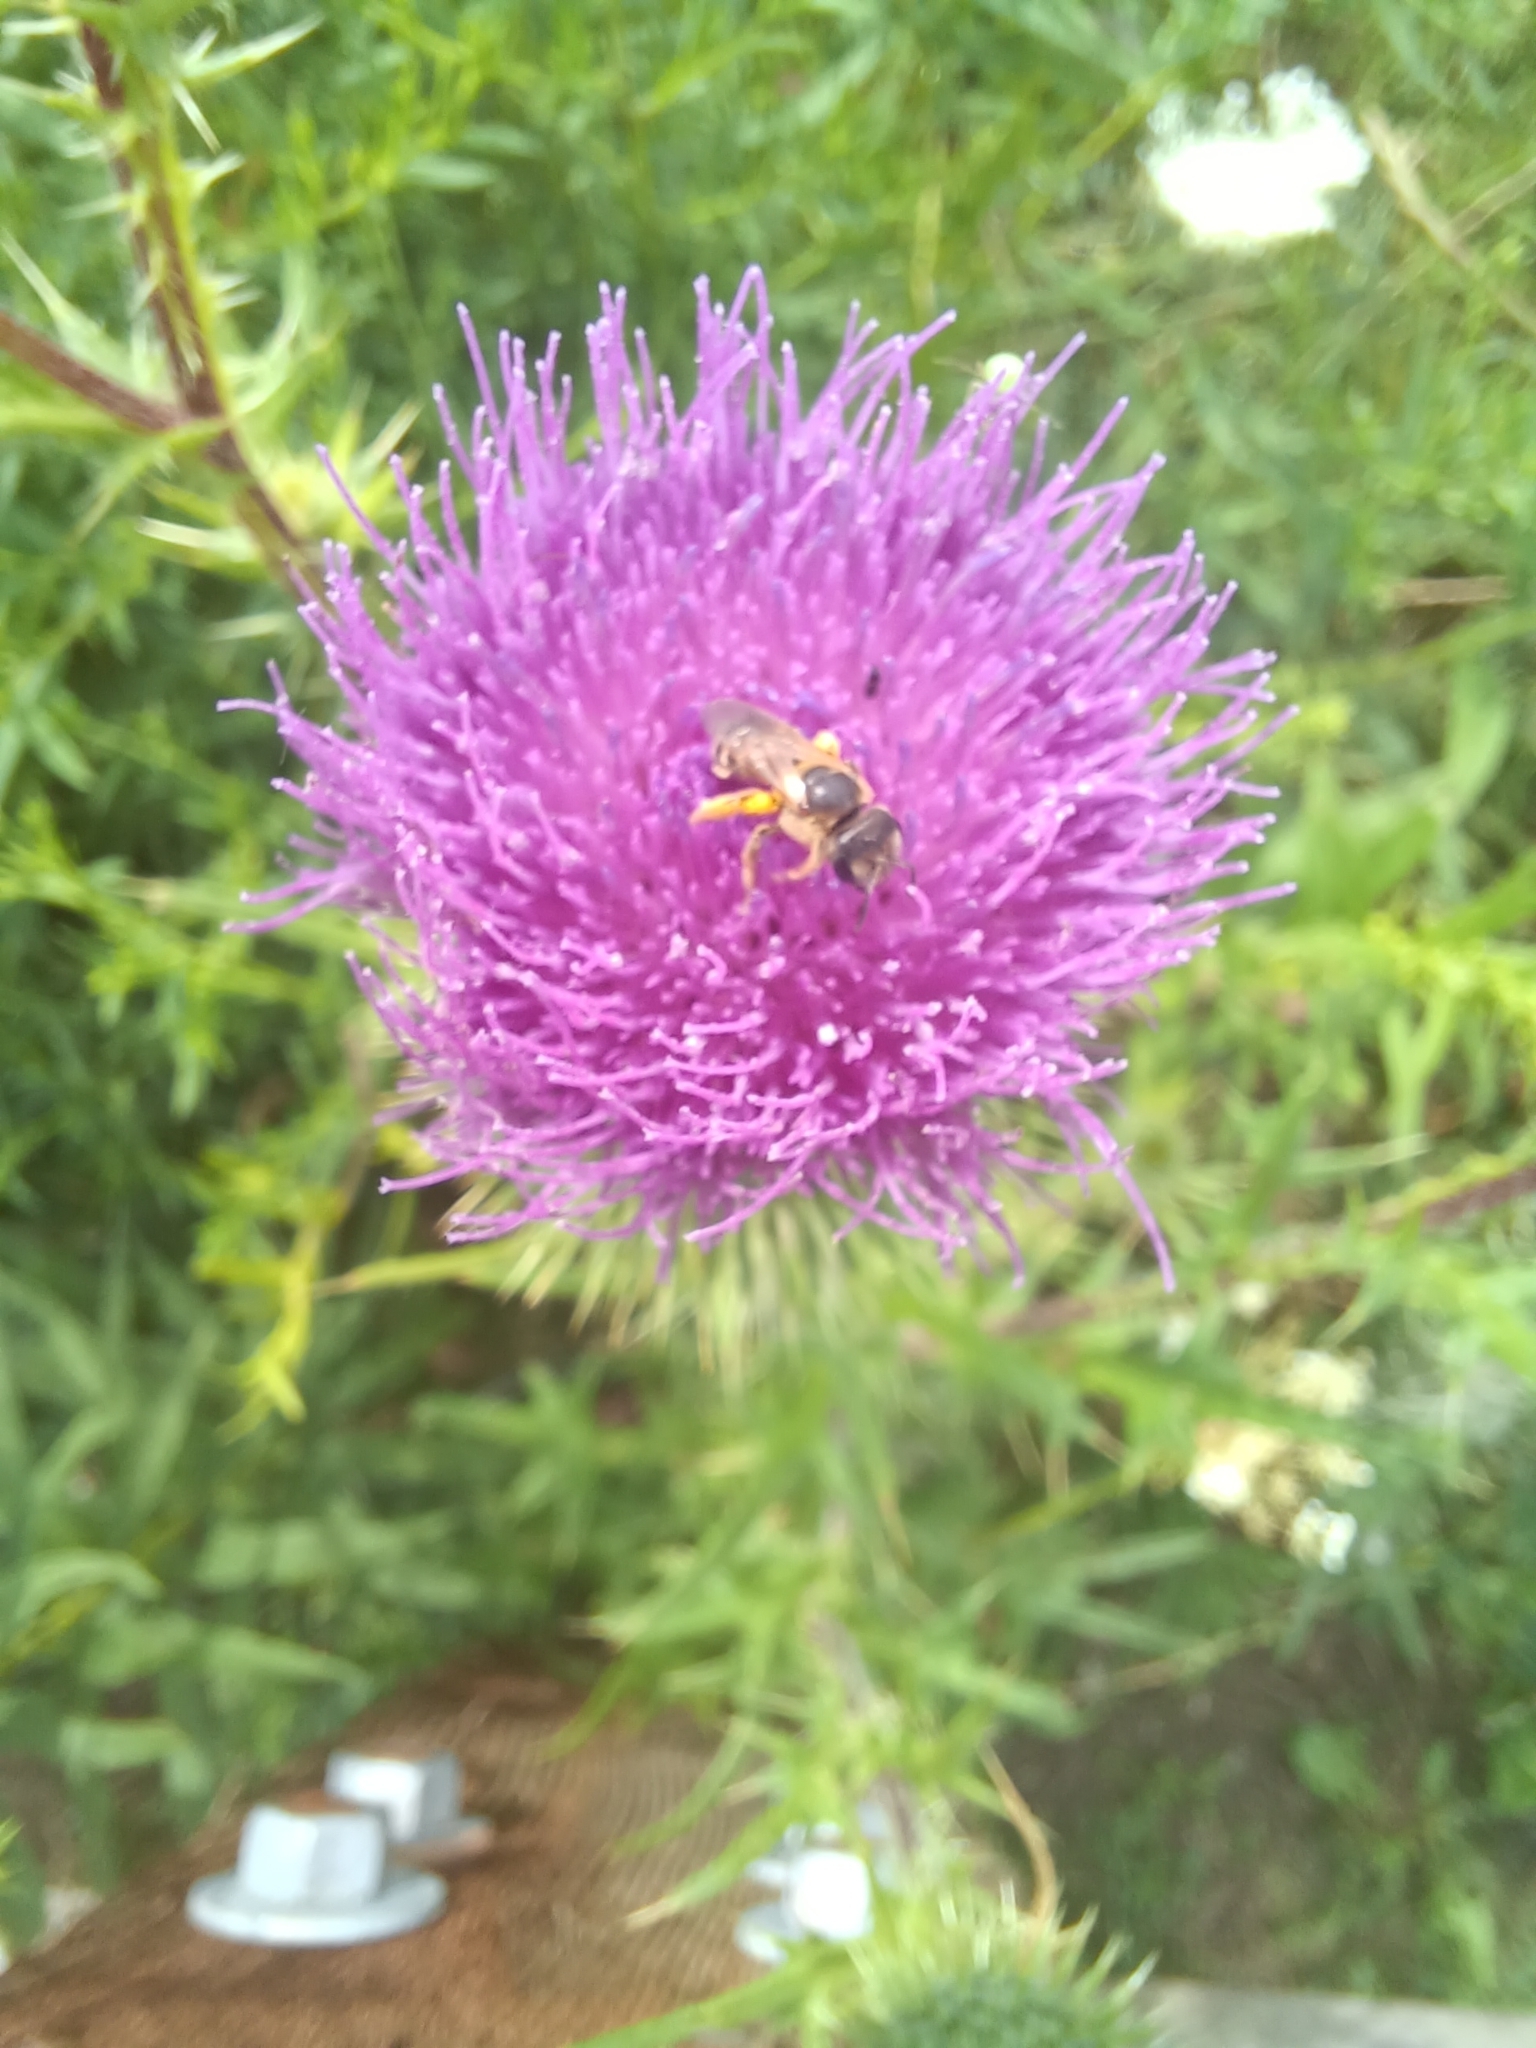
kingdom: Animalia
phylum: Arthropoda
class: Insecta
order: Hymenoptera
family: Halictidae
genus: Halictus
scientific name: Halictus ligatus
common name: Ligated furrow bee
